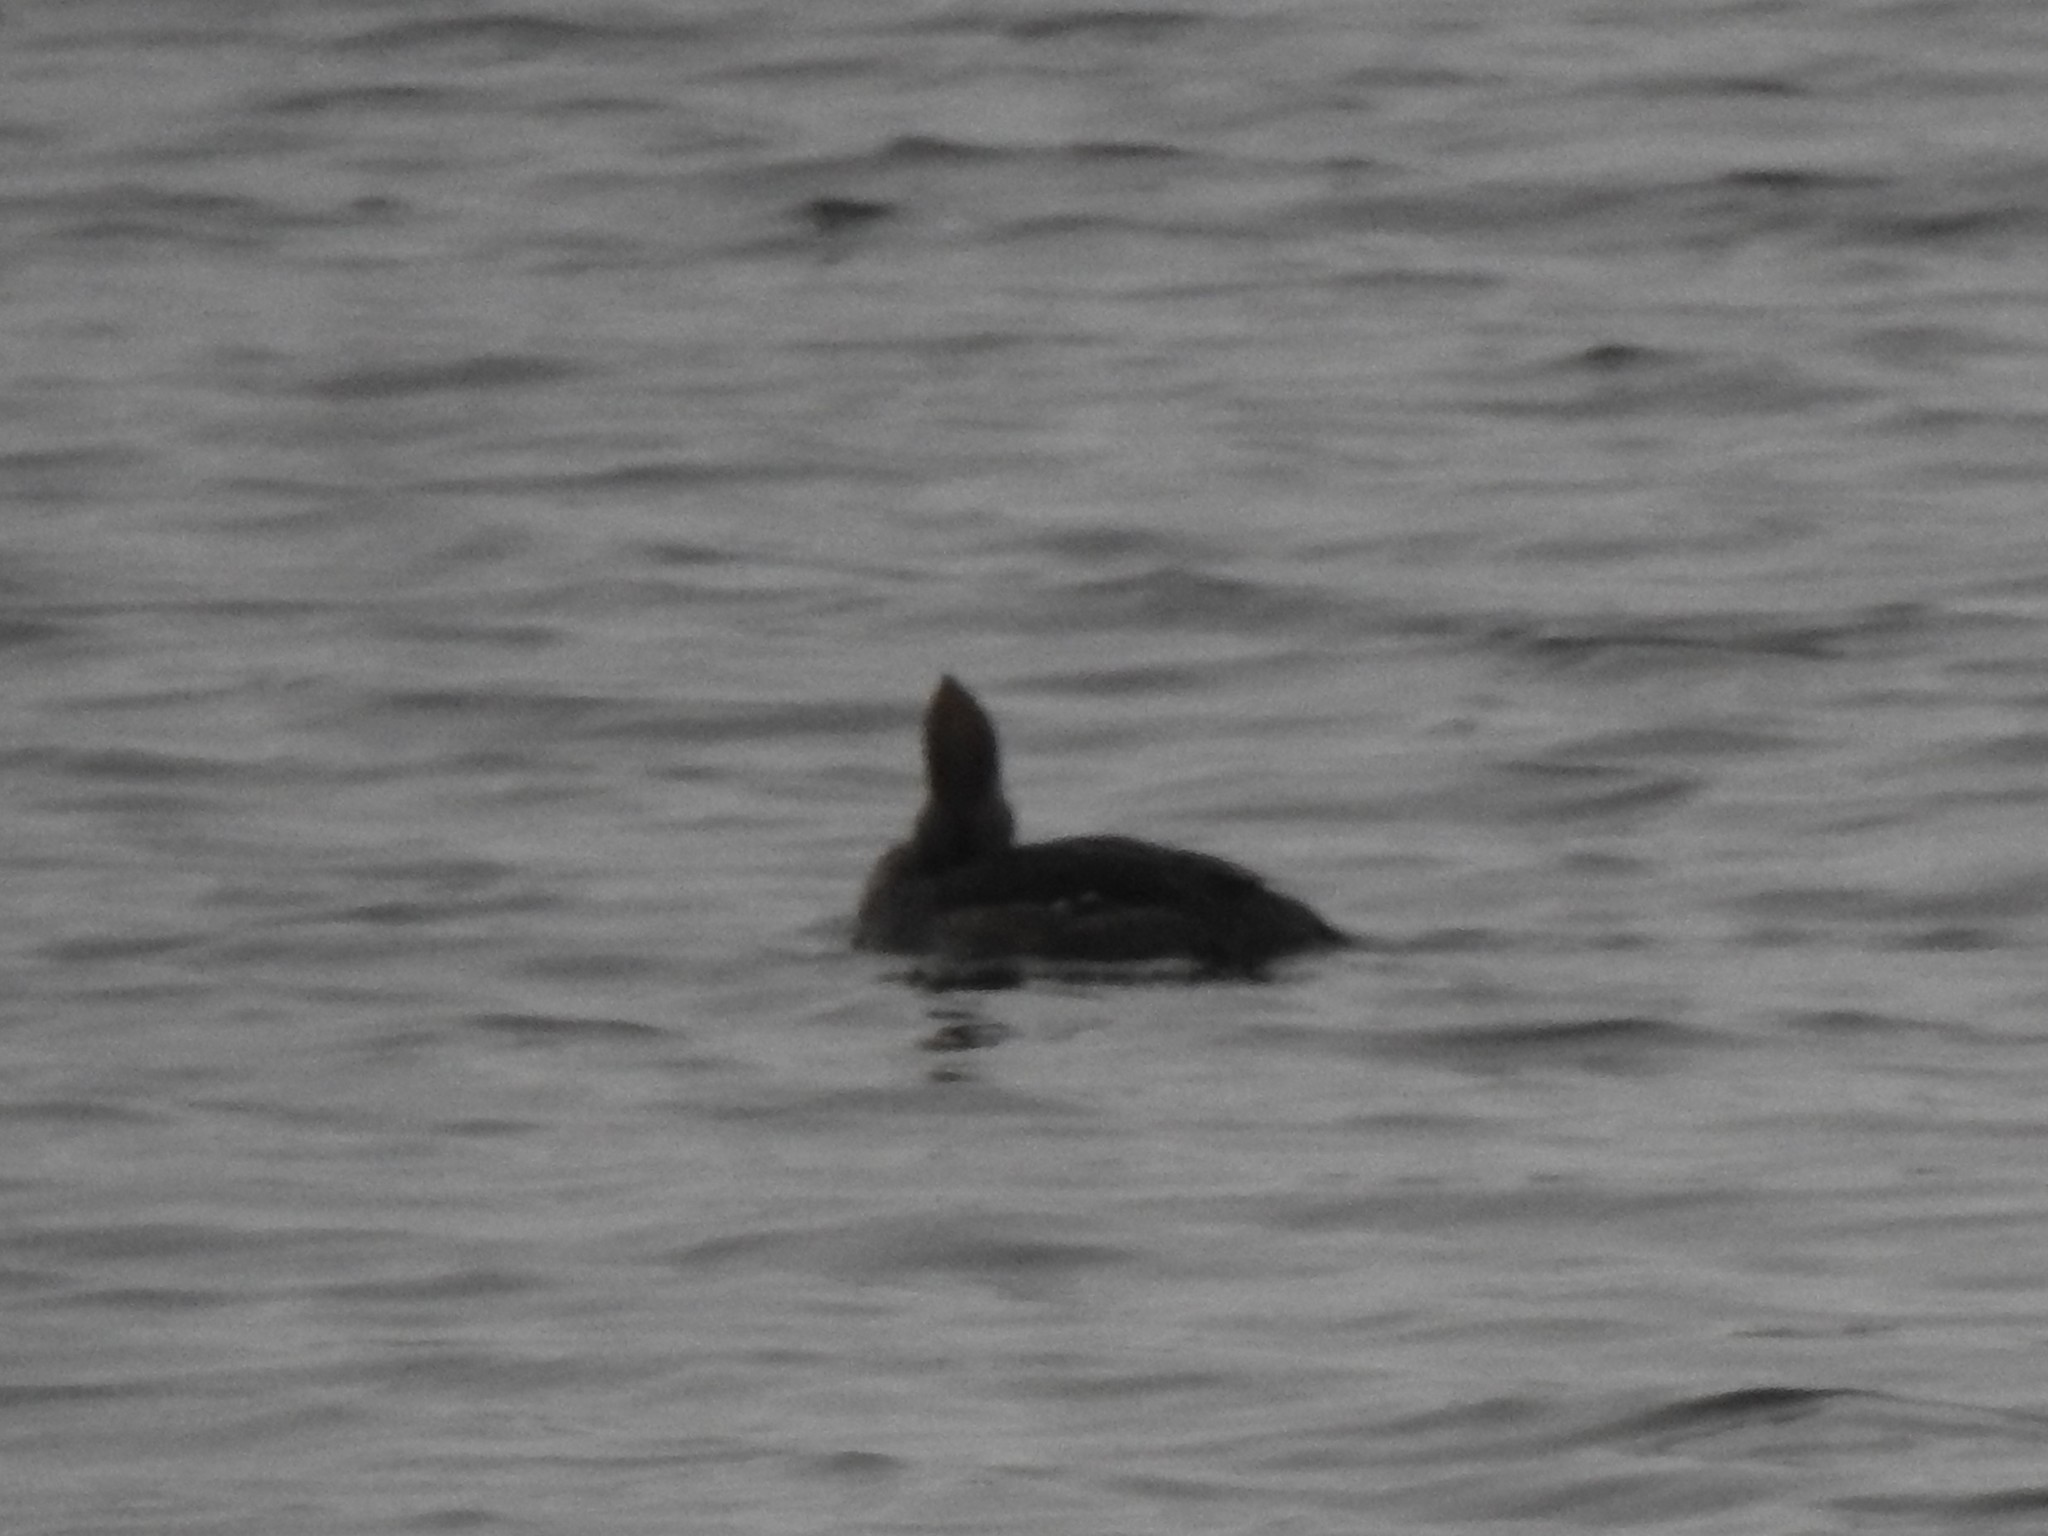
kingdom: Animalia
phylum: Chordata
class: Aves
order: Anseriformes
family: Anatidae
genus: Lophodytes
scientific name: Lophodytes cucullatus
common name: Hooded merganser
